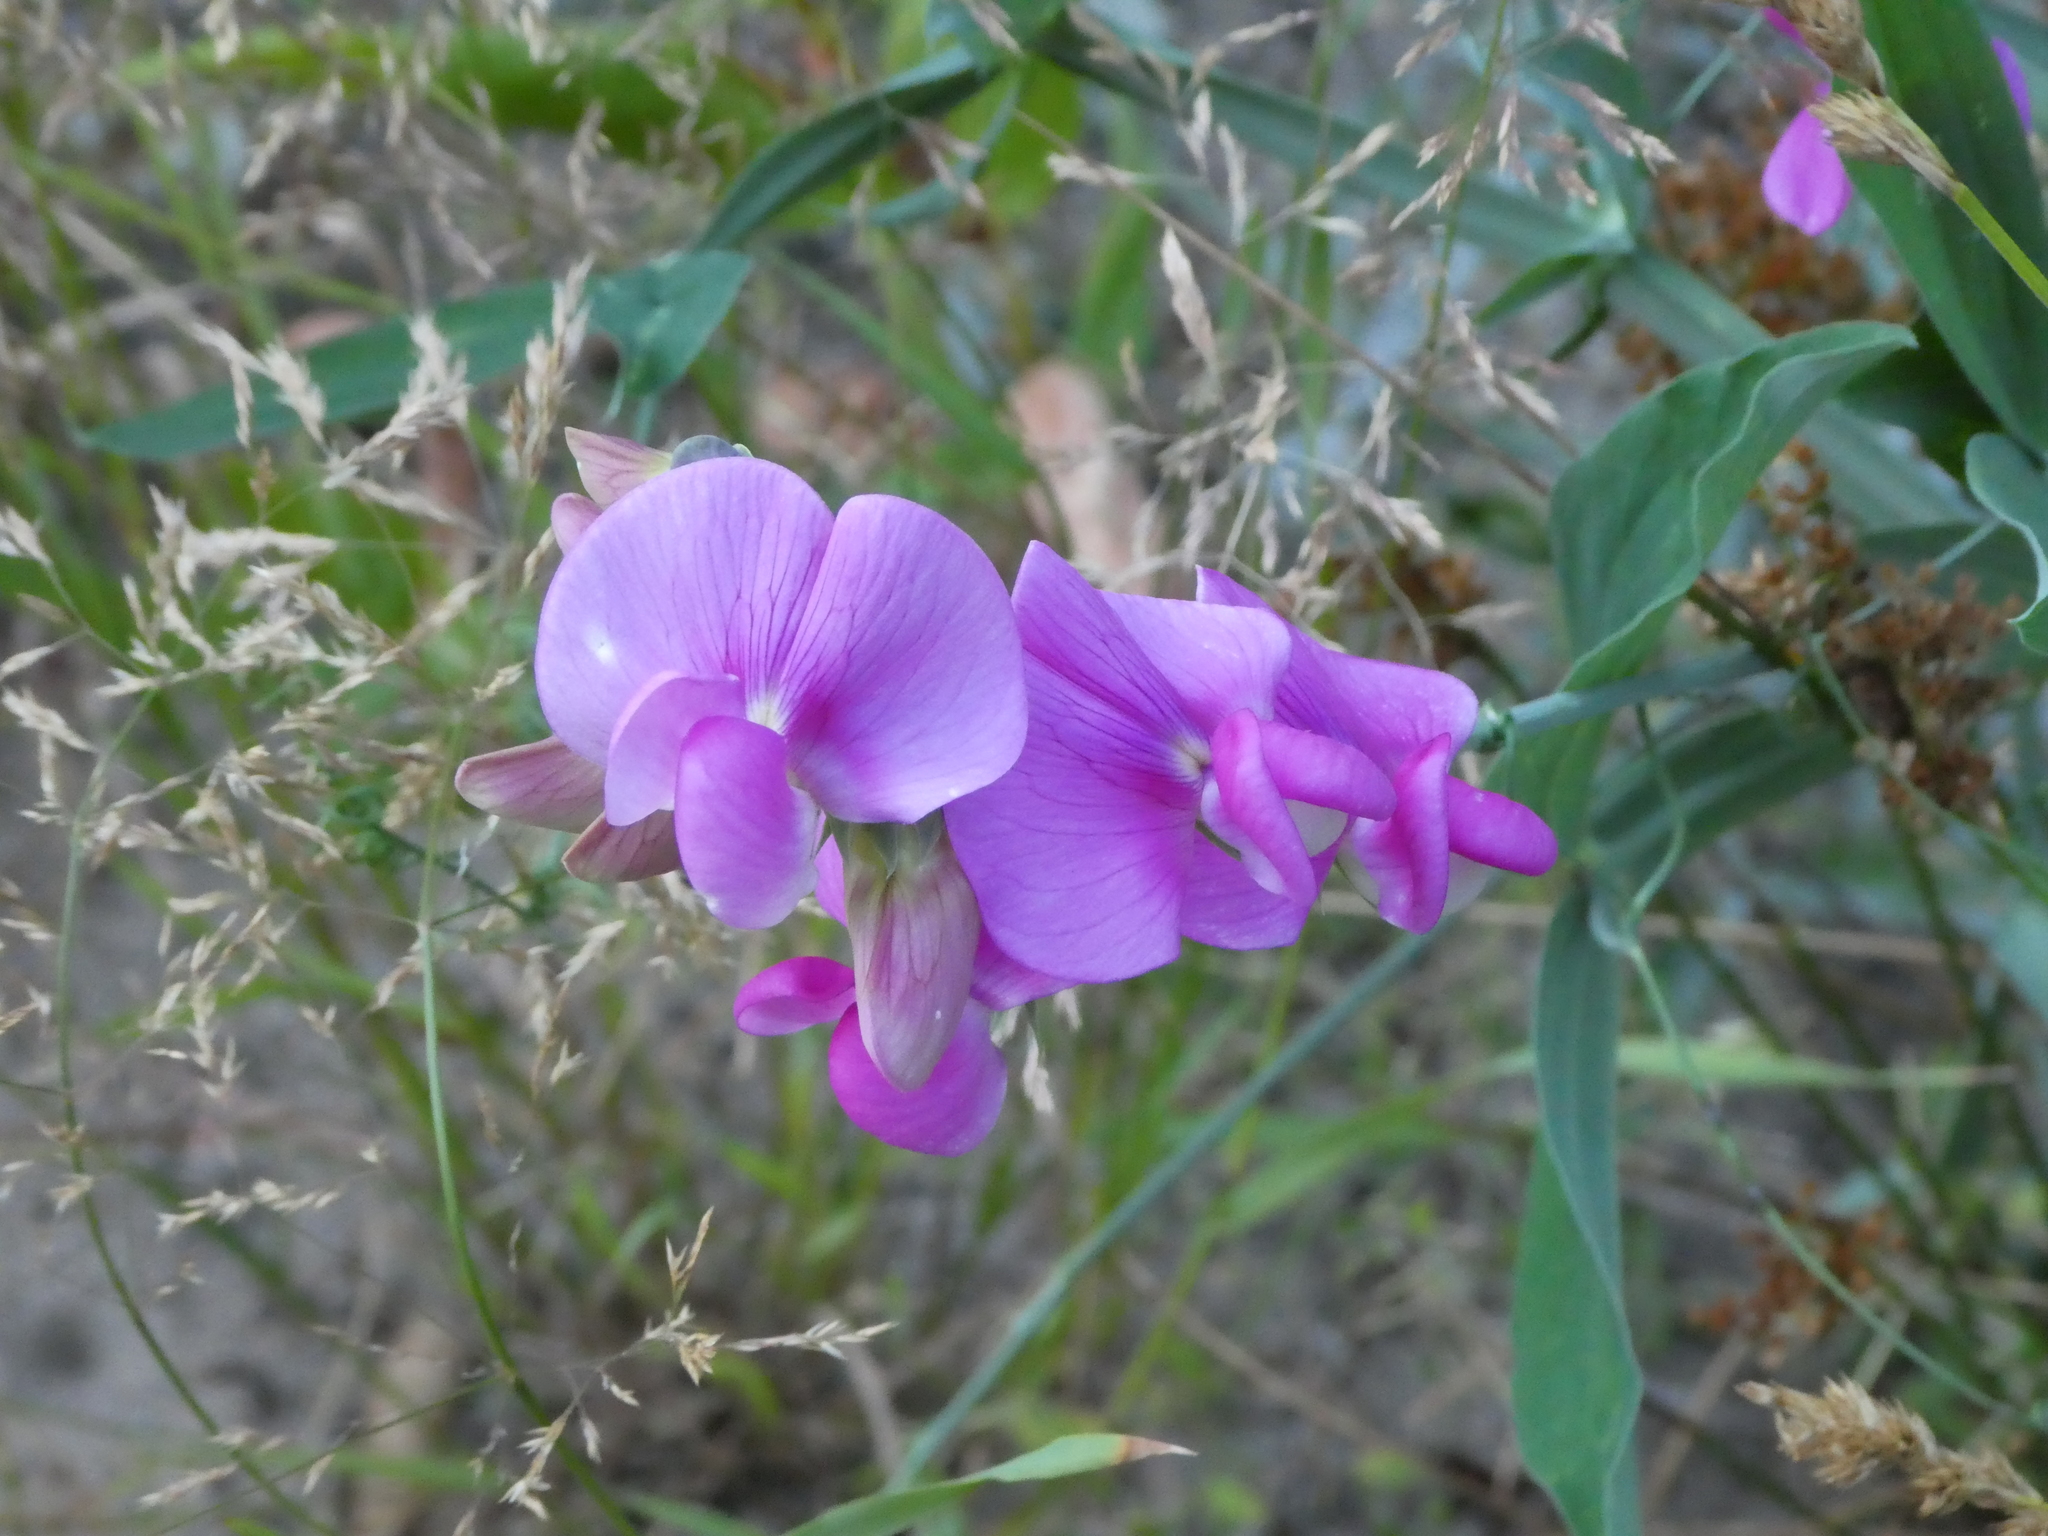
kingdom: Plantae
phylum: Tracheophyta
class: Magnoliopsida
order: Fabales
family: Fabaceae
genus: Lathyrus
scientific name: Lathyrus latifolius
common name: Perennial pea
